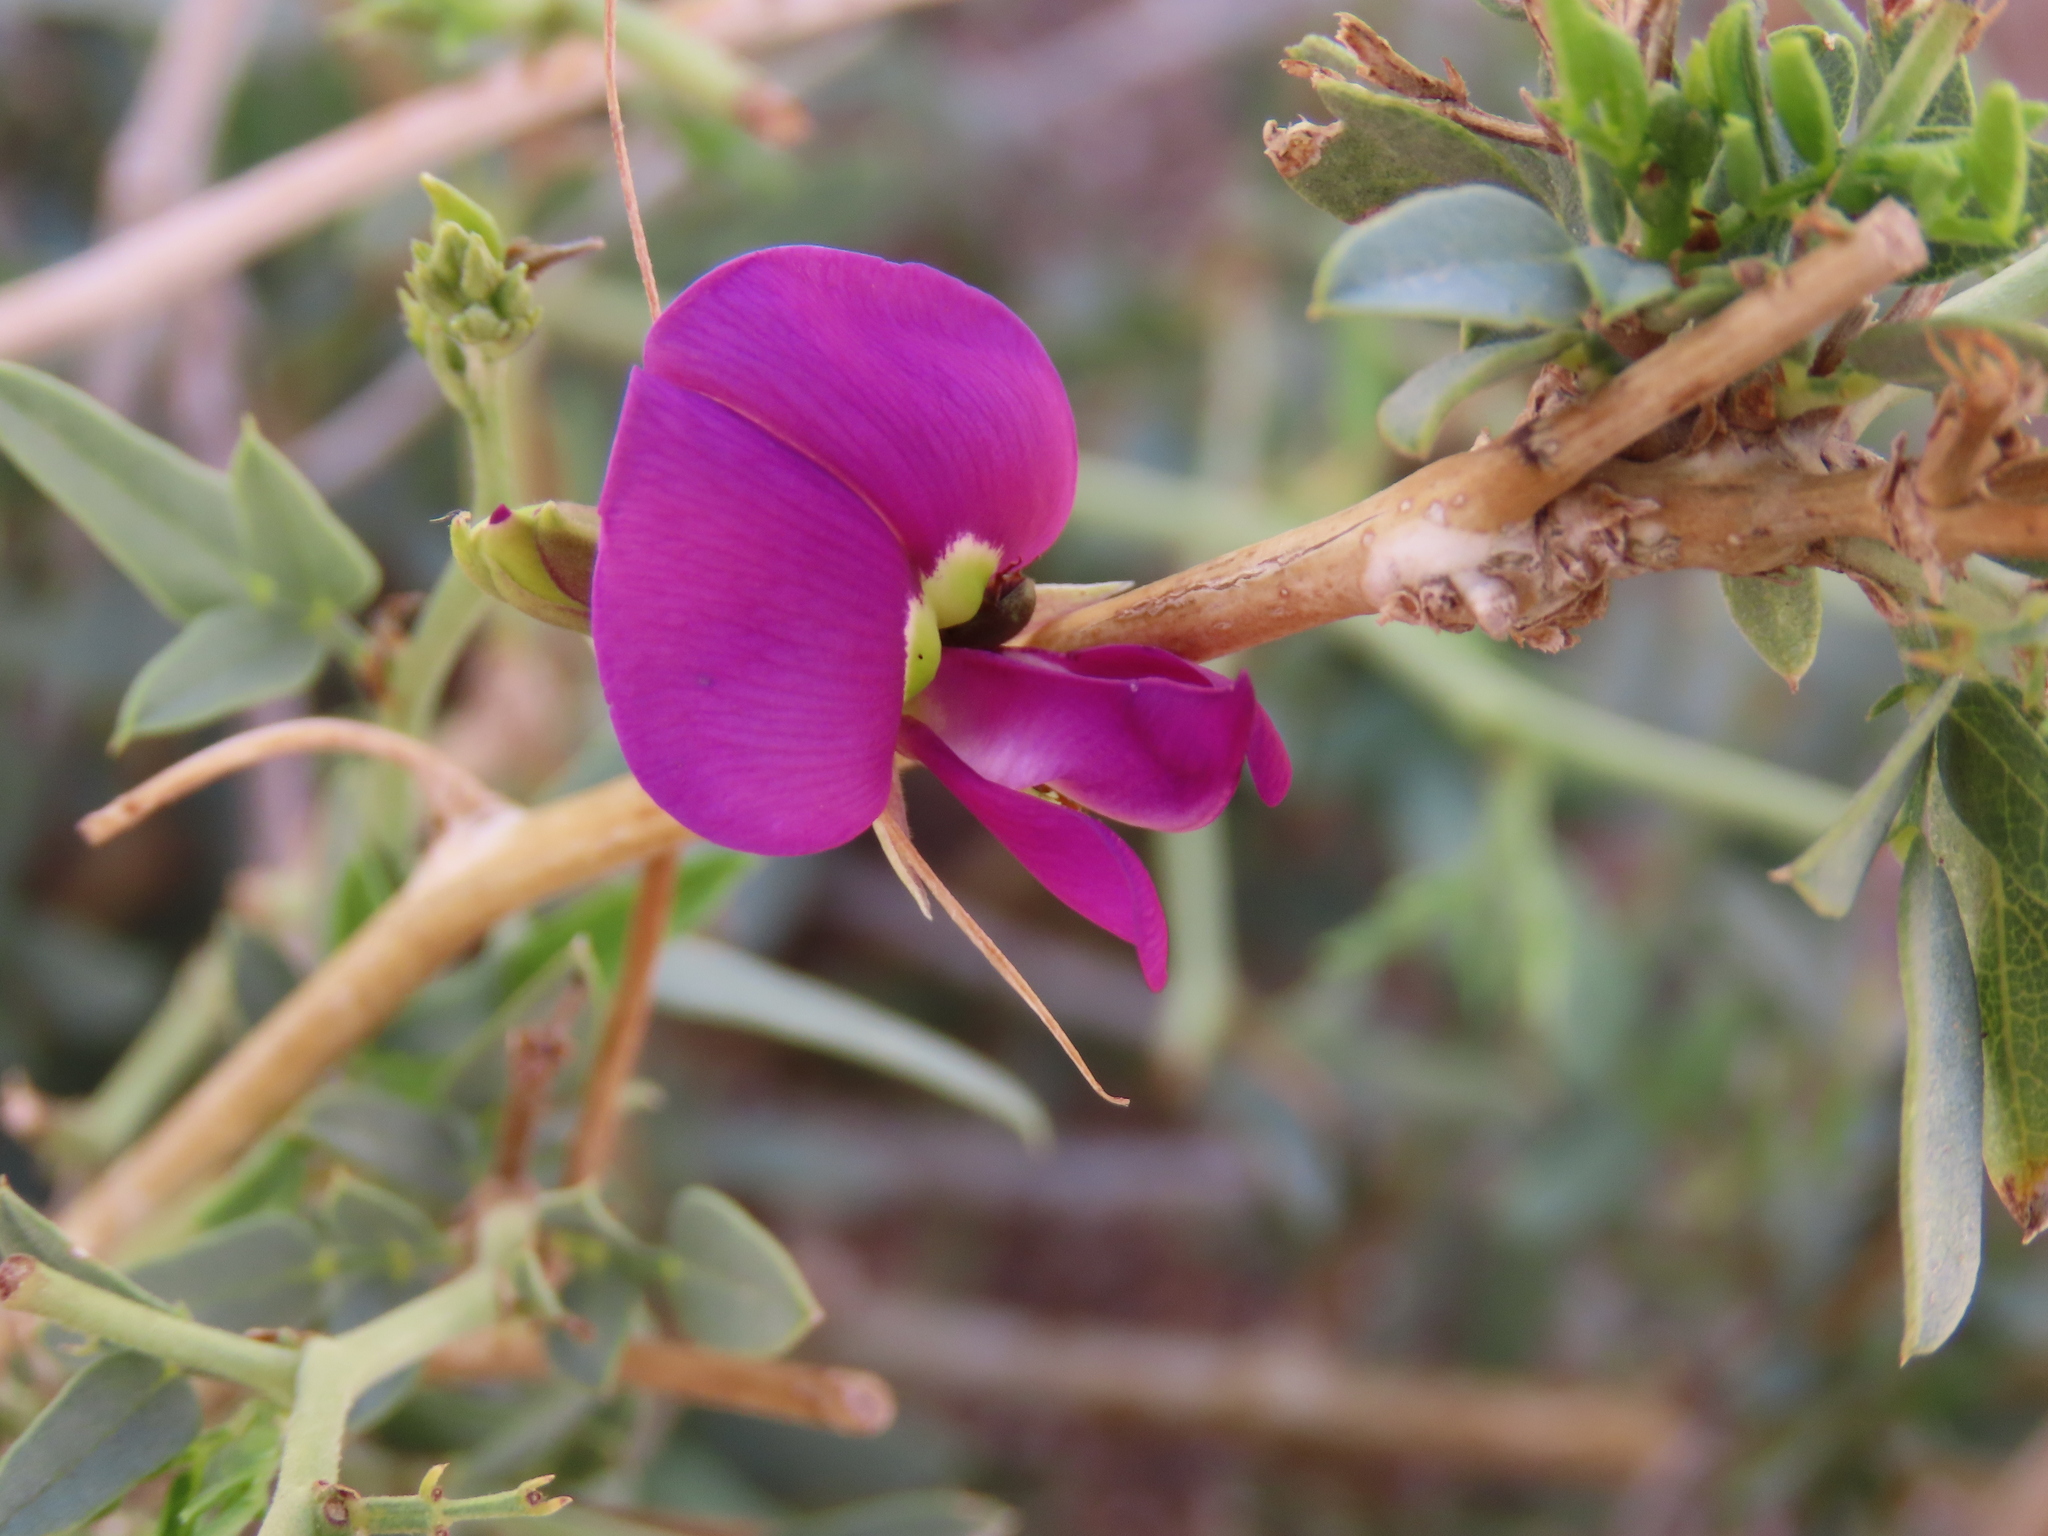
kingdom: Plantae
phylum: Tracheophyta
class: Magnoliopsida
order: Fabales
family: Fabaceae
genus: Otoptera
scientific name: Otoptera burchellii
